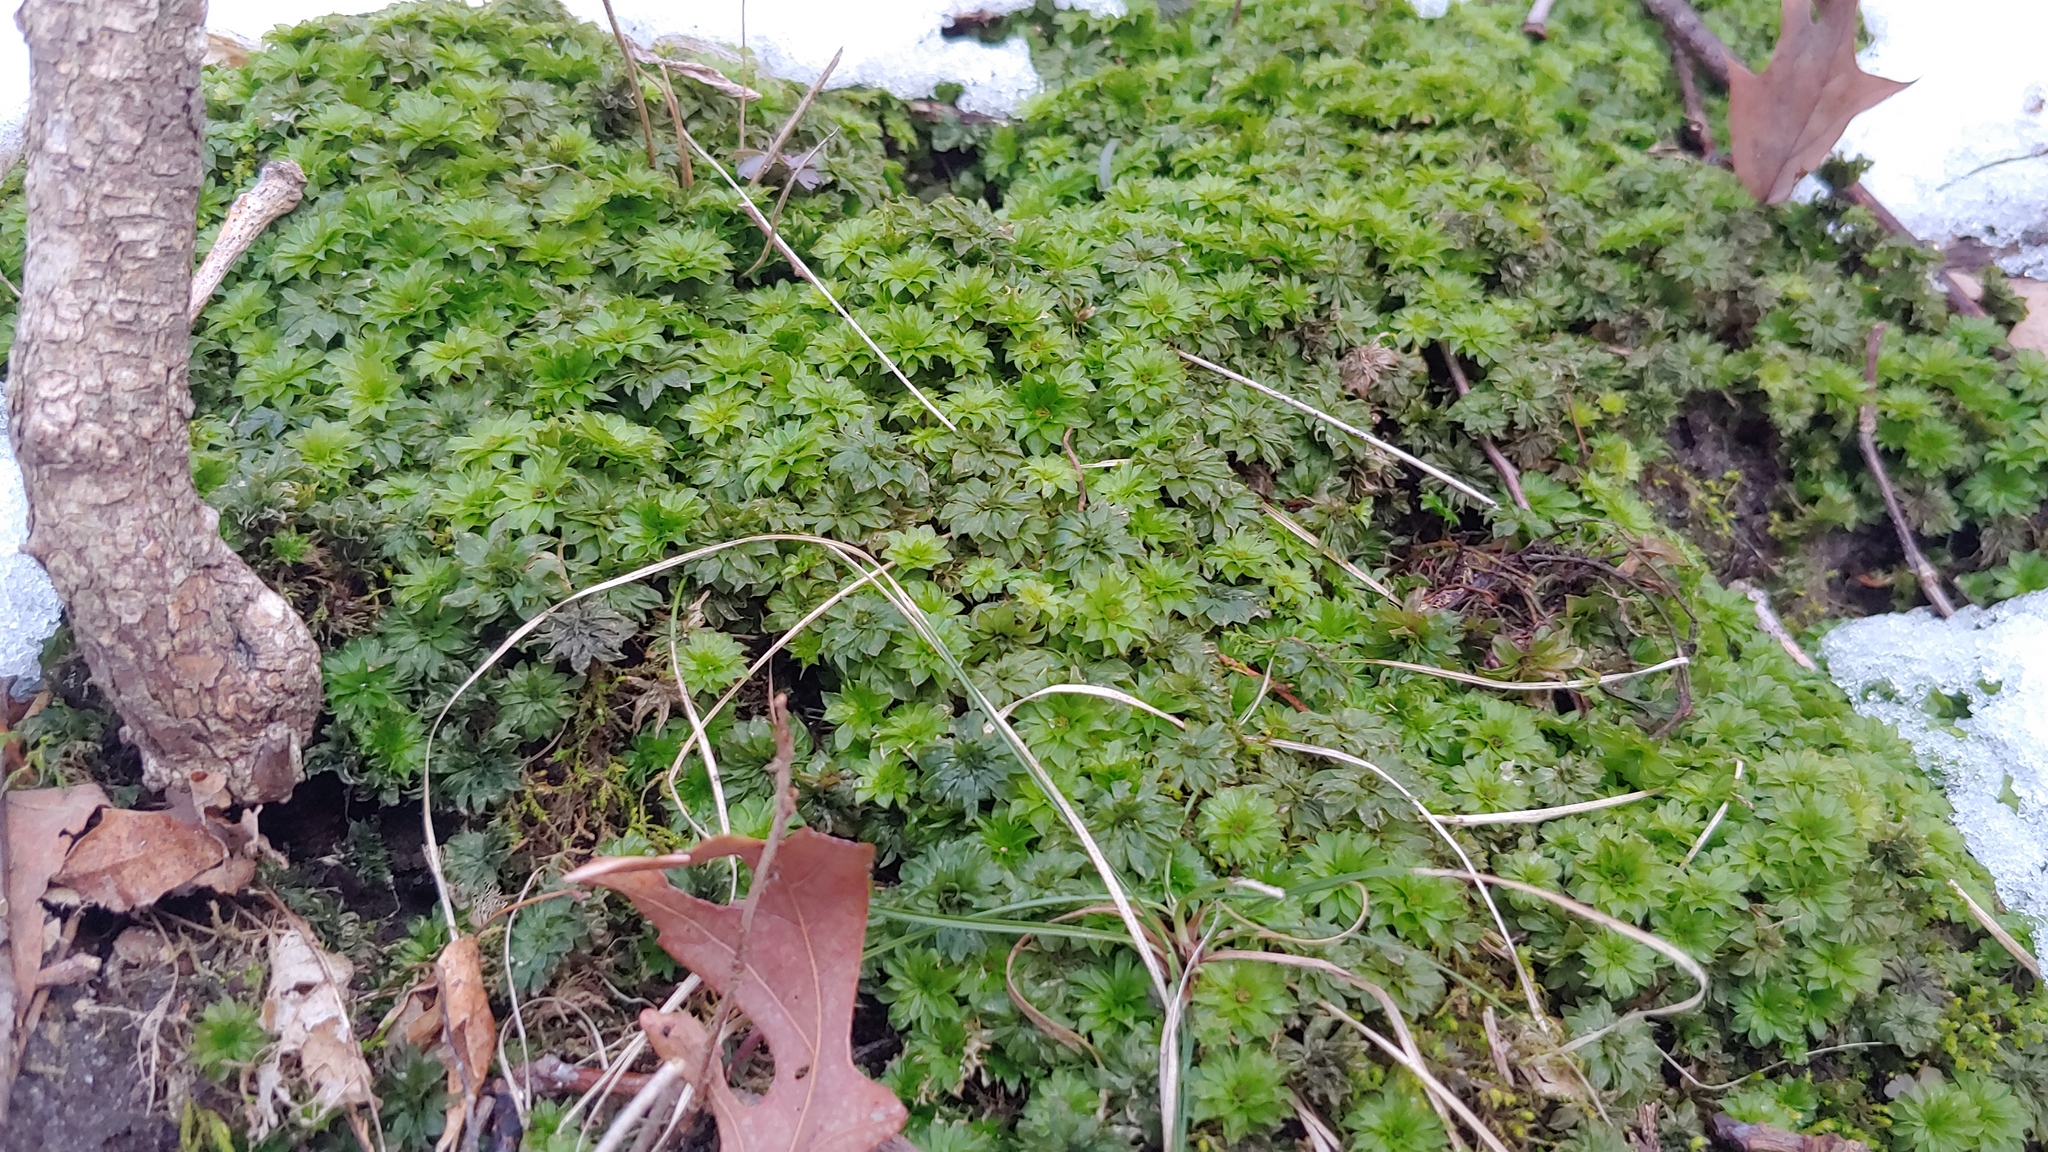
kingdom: Plantae
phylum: Bryophyta
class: Bryopsida
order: Bryales
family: Bryaceae
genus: Rhodobryum
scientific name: Rhodobryum ontariense
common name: Ontario rhodobryum moss
